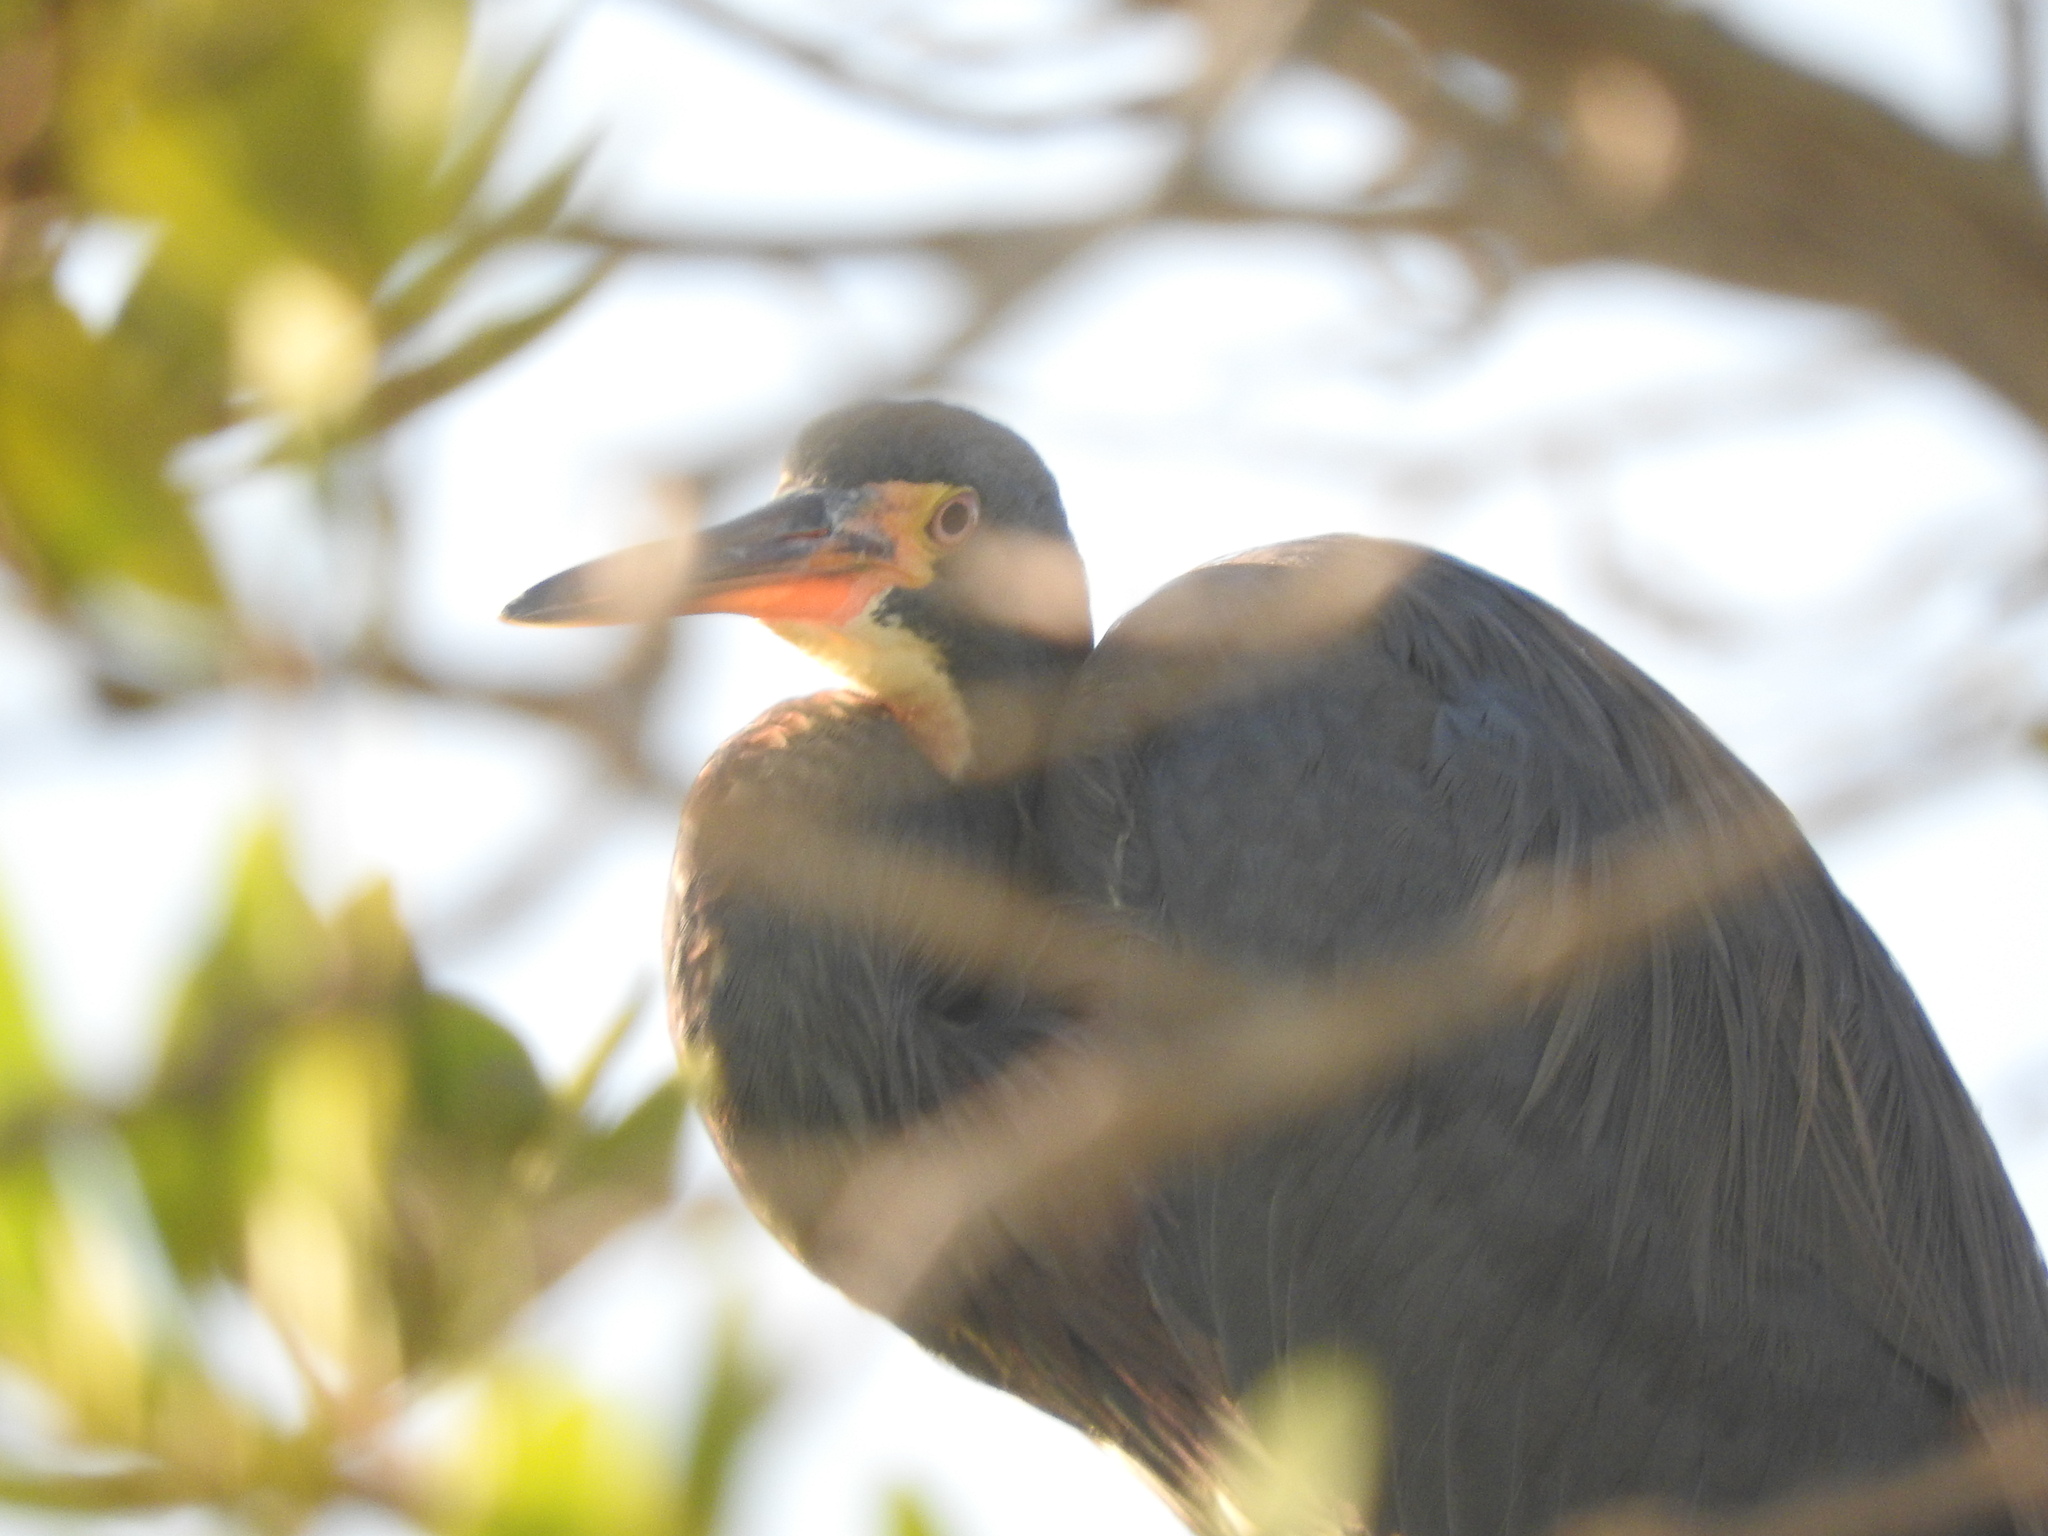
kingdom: Animalia
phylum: Chordata
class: Aves
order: Pelecaniformes
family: Ardeidae
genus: Egretta
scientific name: Egretta tricolor
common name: Tricolored heron
